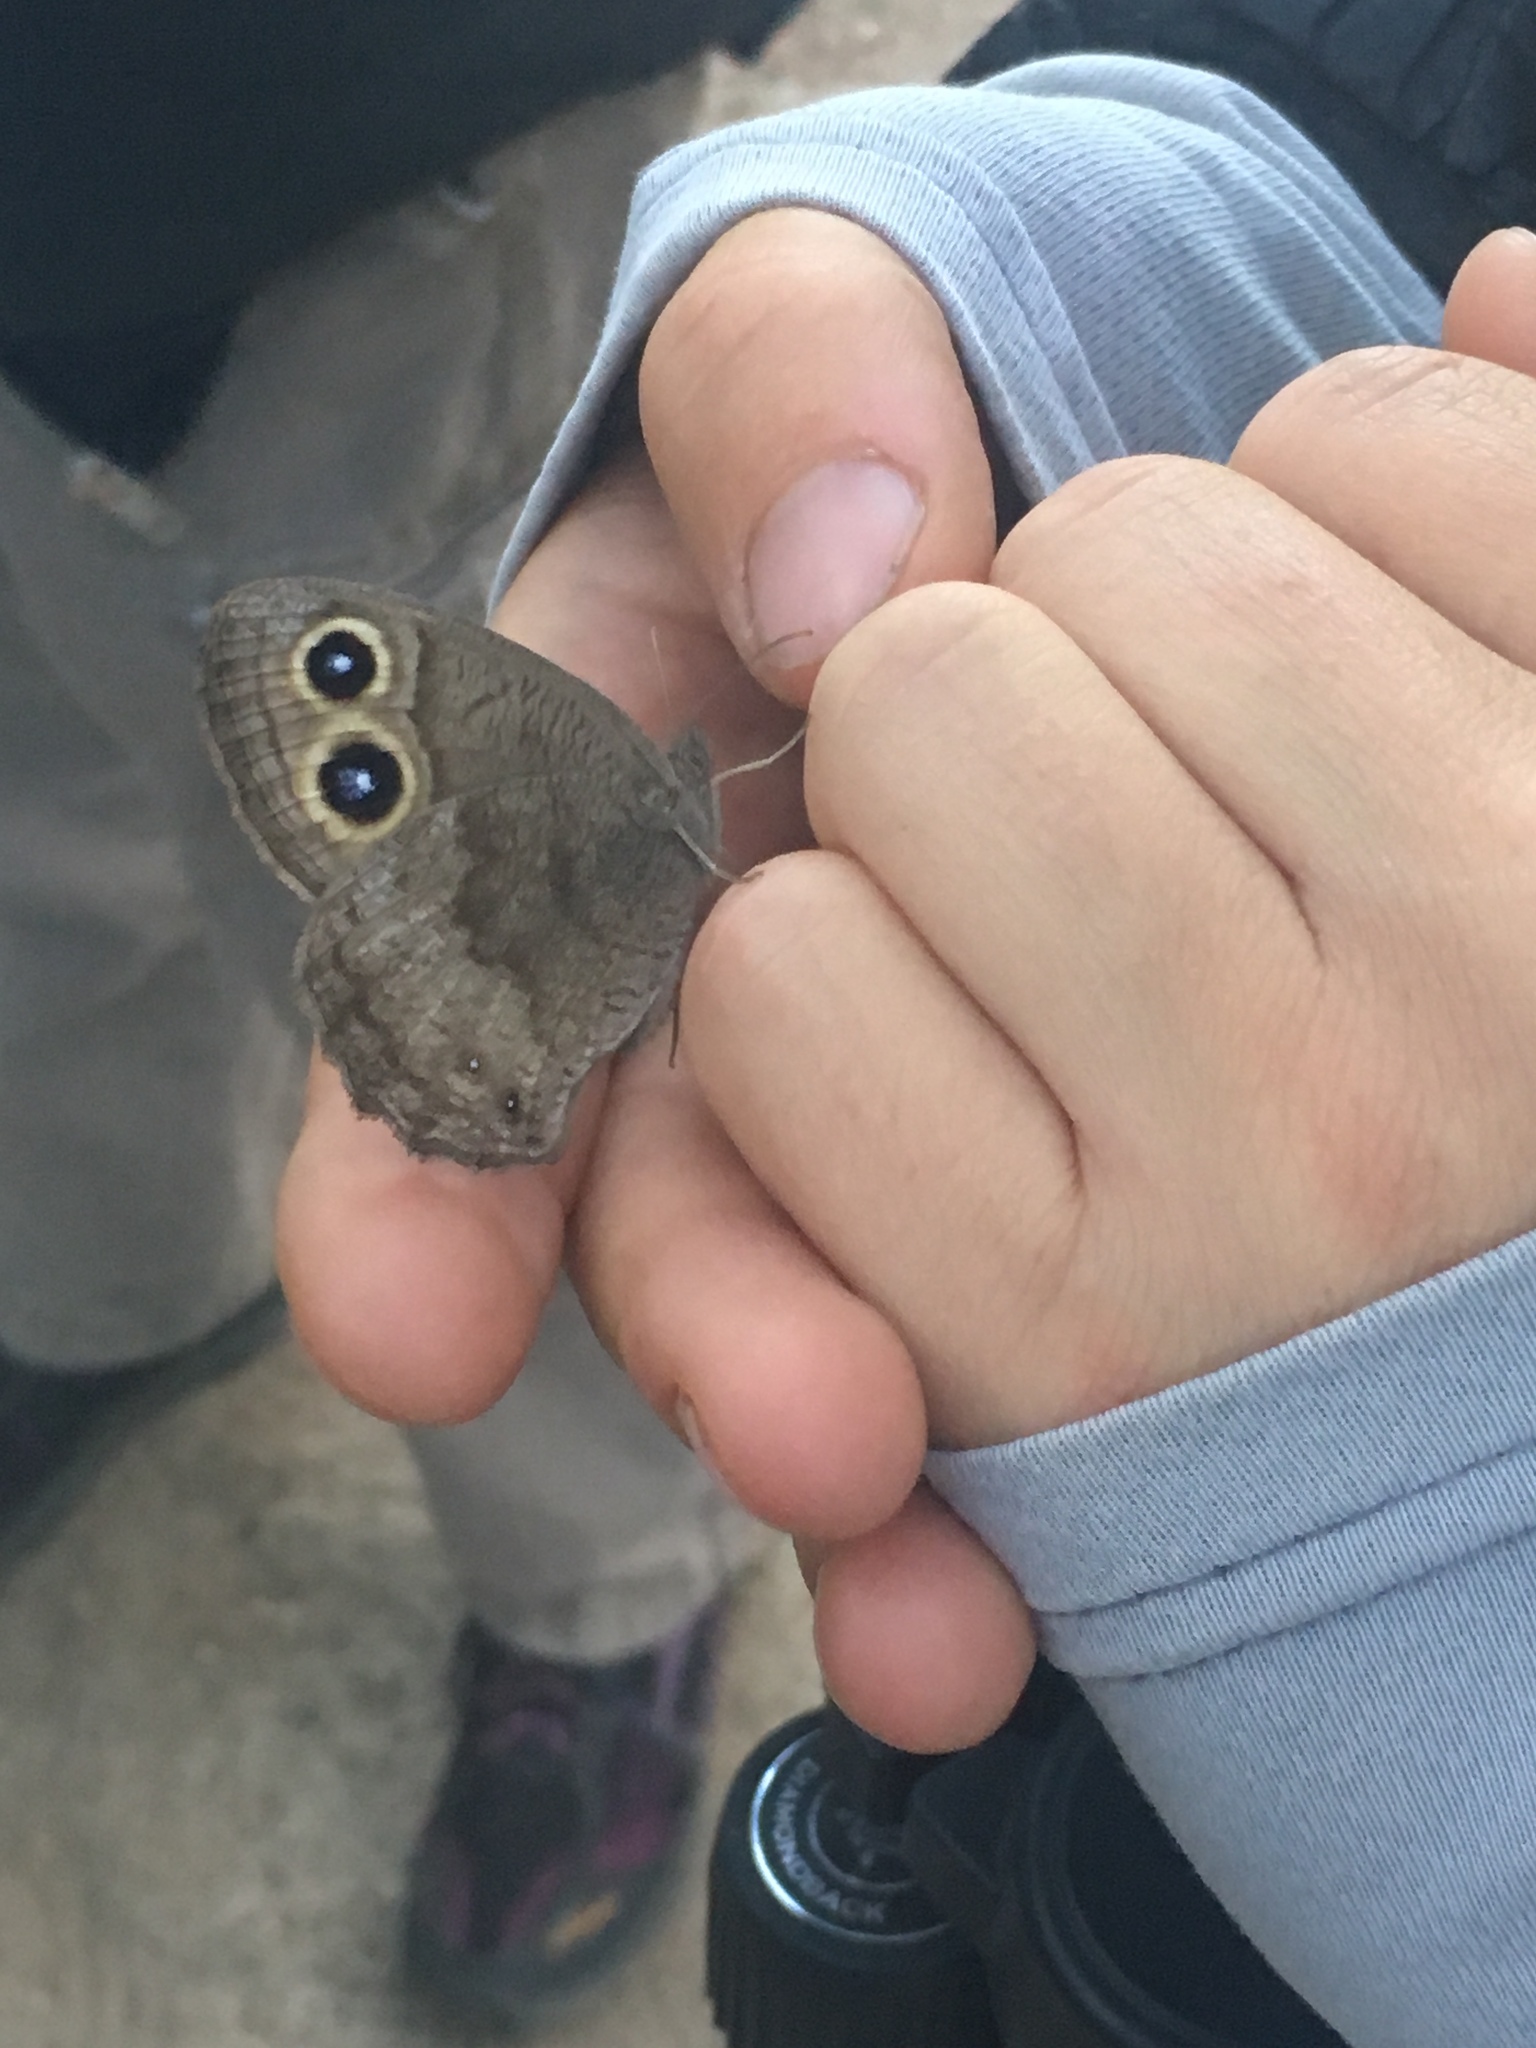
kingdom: Animalia
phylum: Arthropoda
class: Insecta
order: Lepidoptera
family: Nymphalidae
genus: Cercyonis
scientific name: Cercyonis pegala
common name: Common wood-nymph
